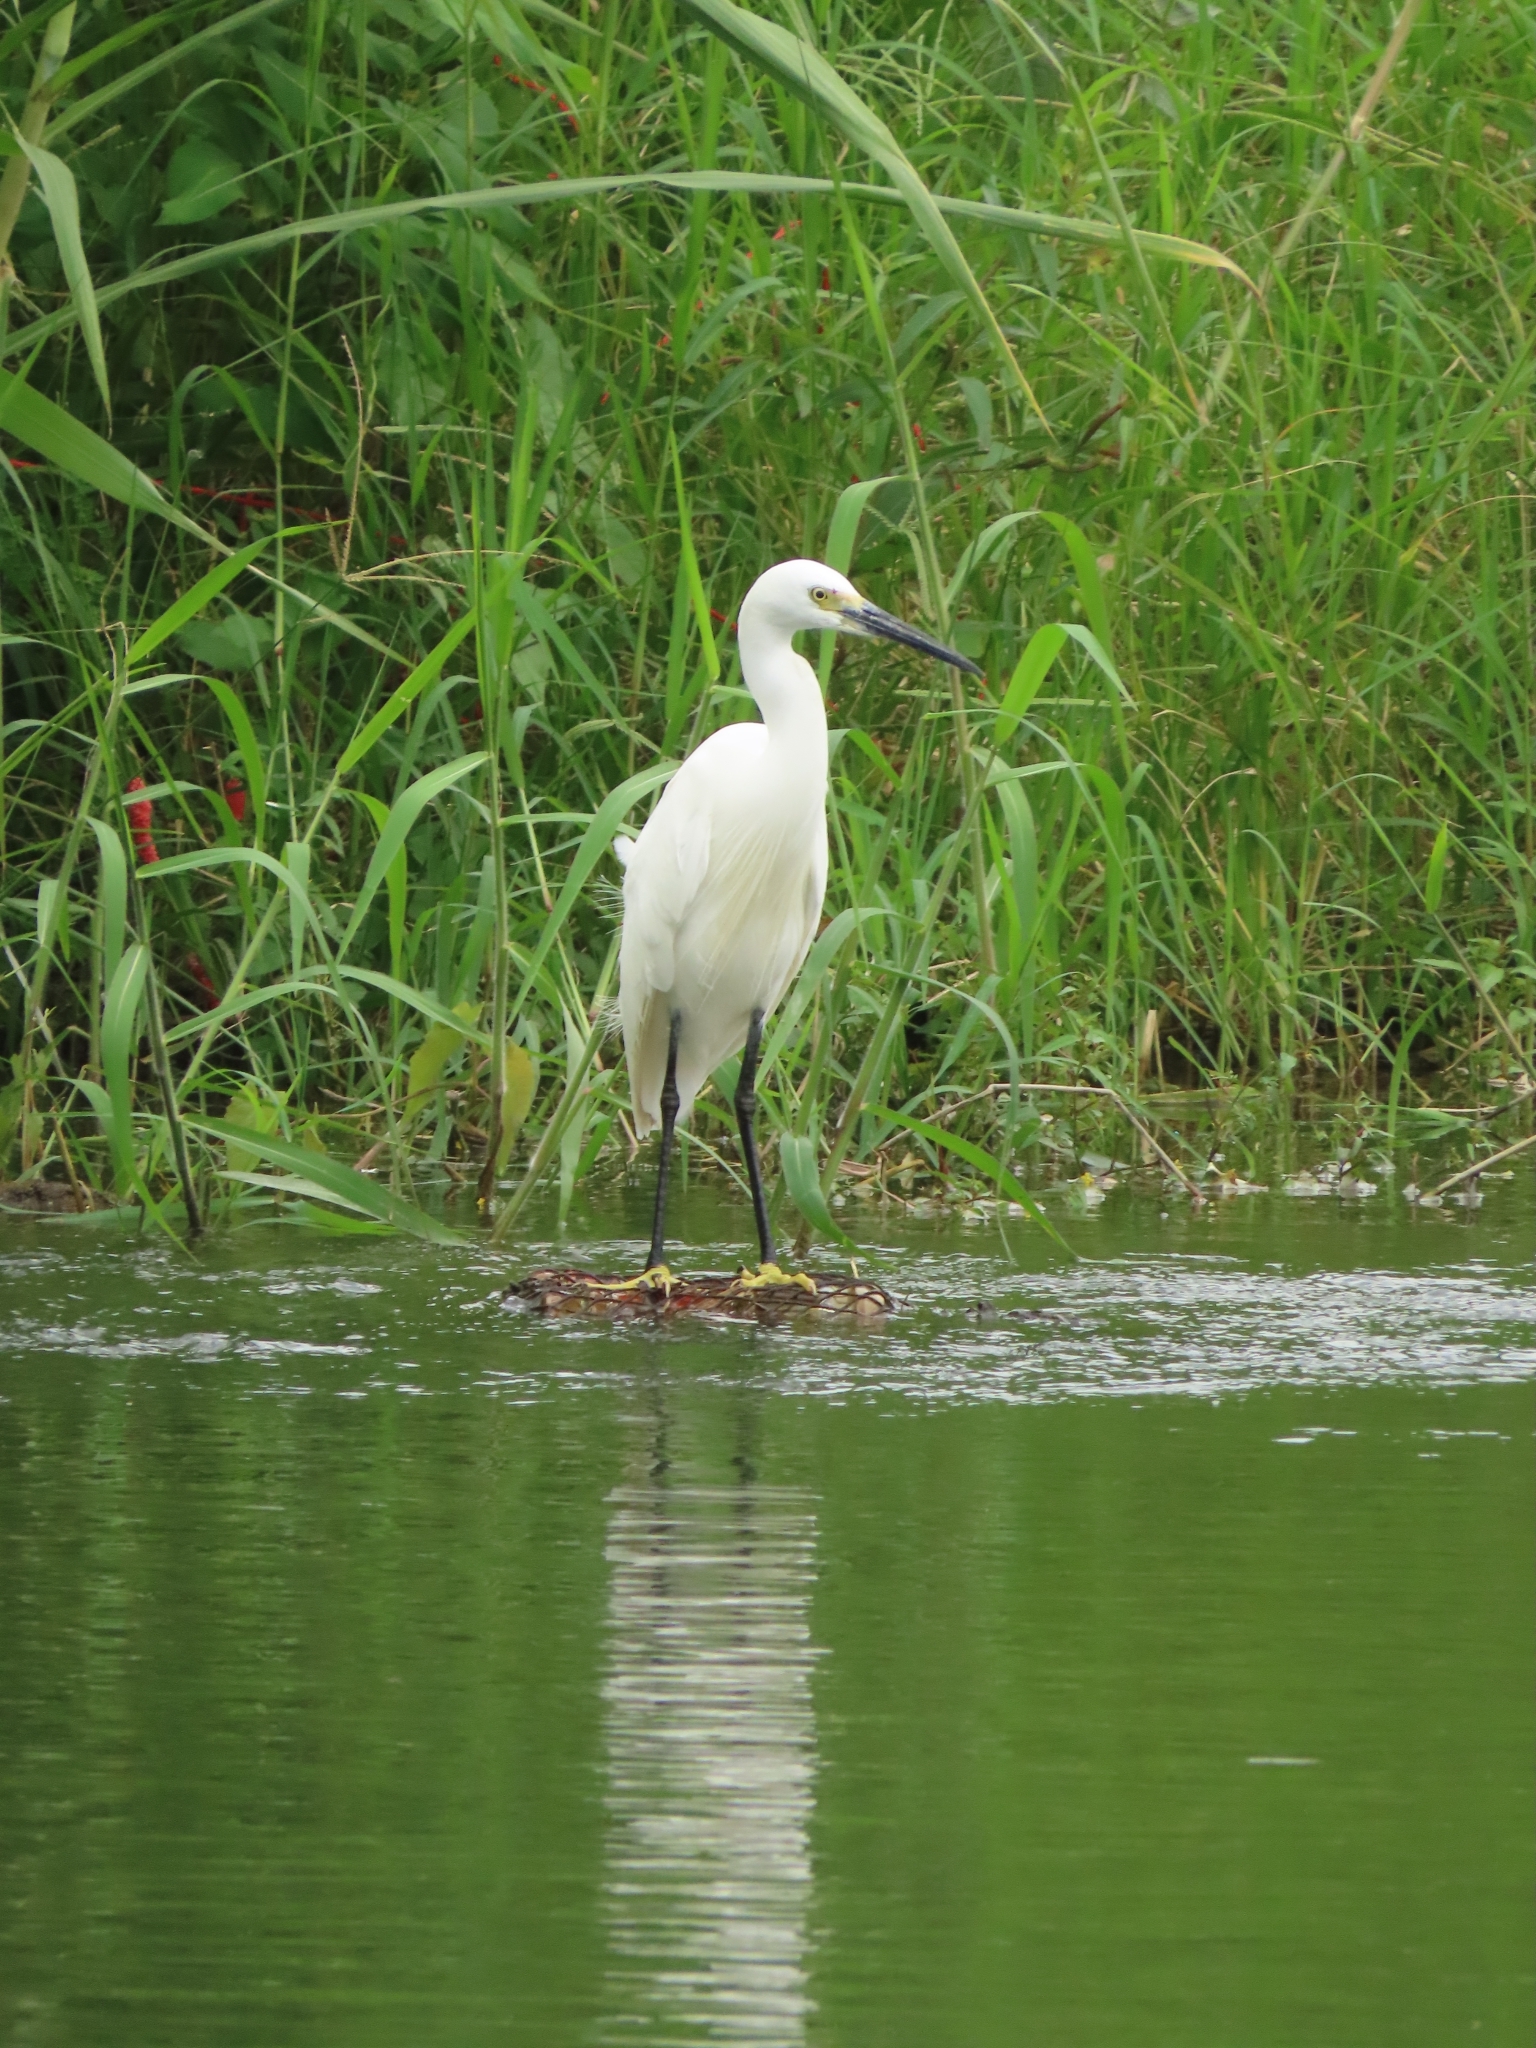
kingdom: Animalia
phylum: Chordata
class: Aves
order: Pelecaniformes
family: Ardeidae
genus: Egretta
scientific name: Egretta garzetta
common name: Little egret
